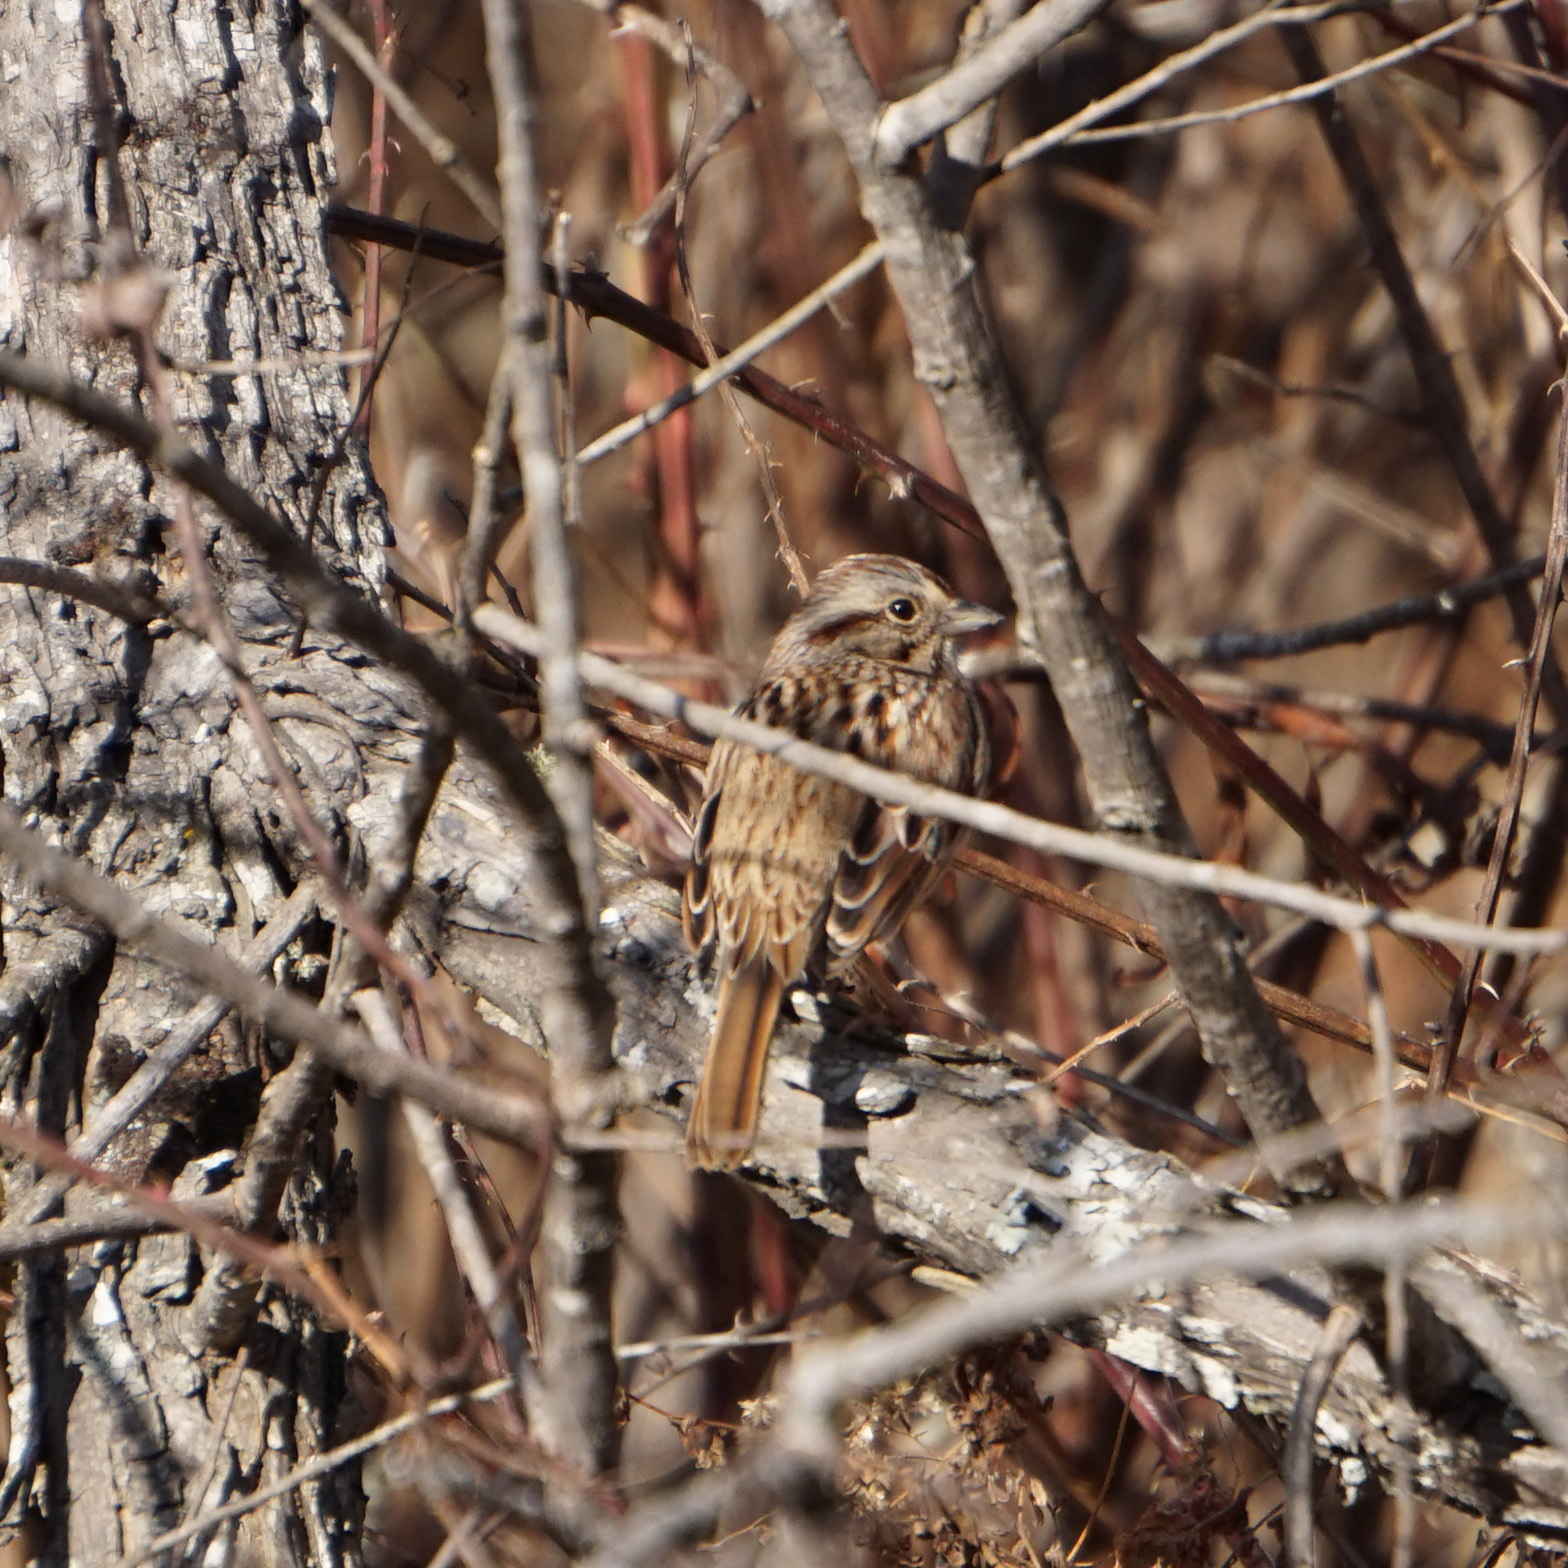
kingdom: Animalia
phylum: Chordata
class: Aves
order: Passeriformes
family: Passerellidae
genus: Melospiza
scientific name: Melospiza melodia
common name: Song sparrow
